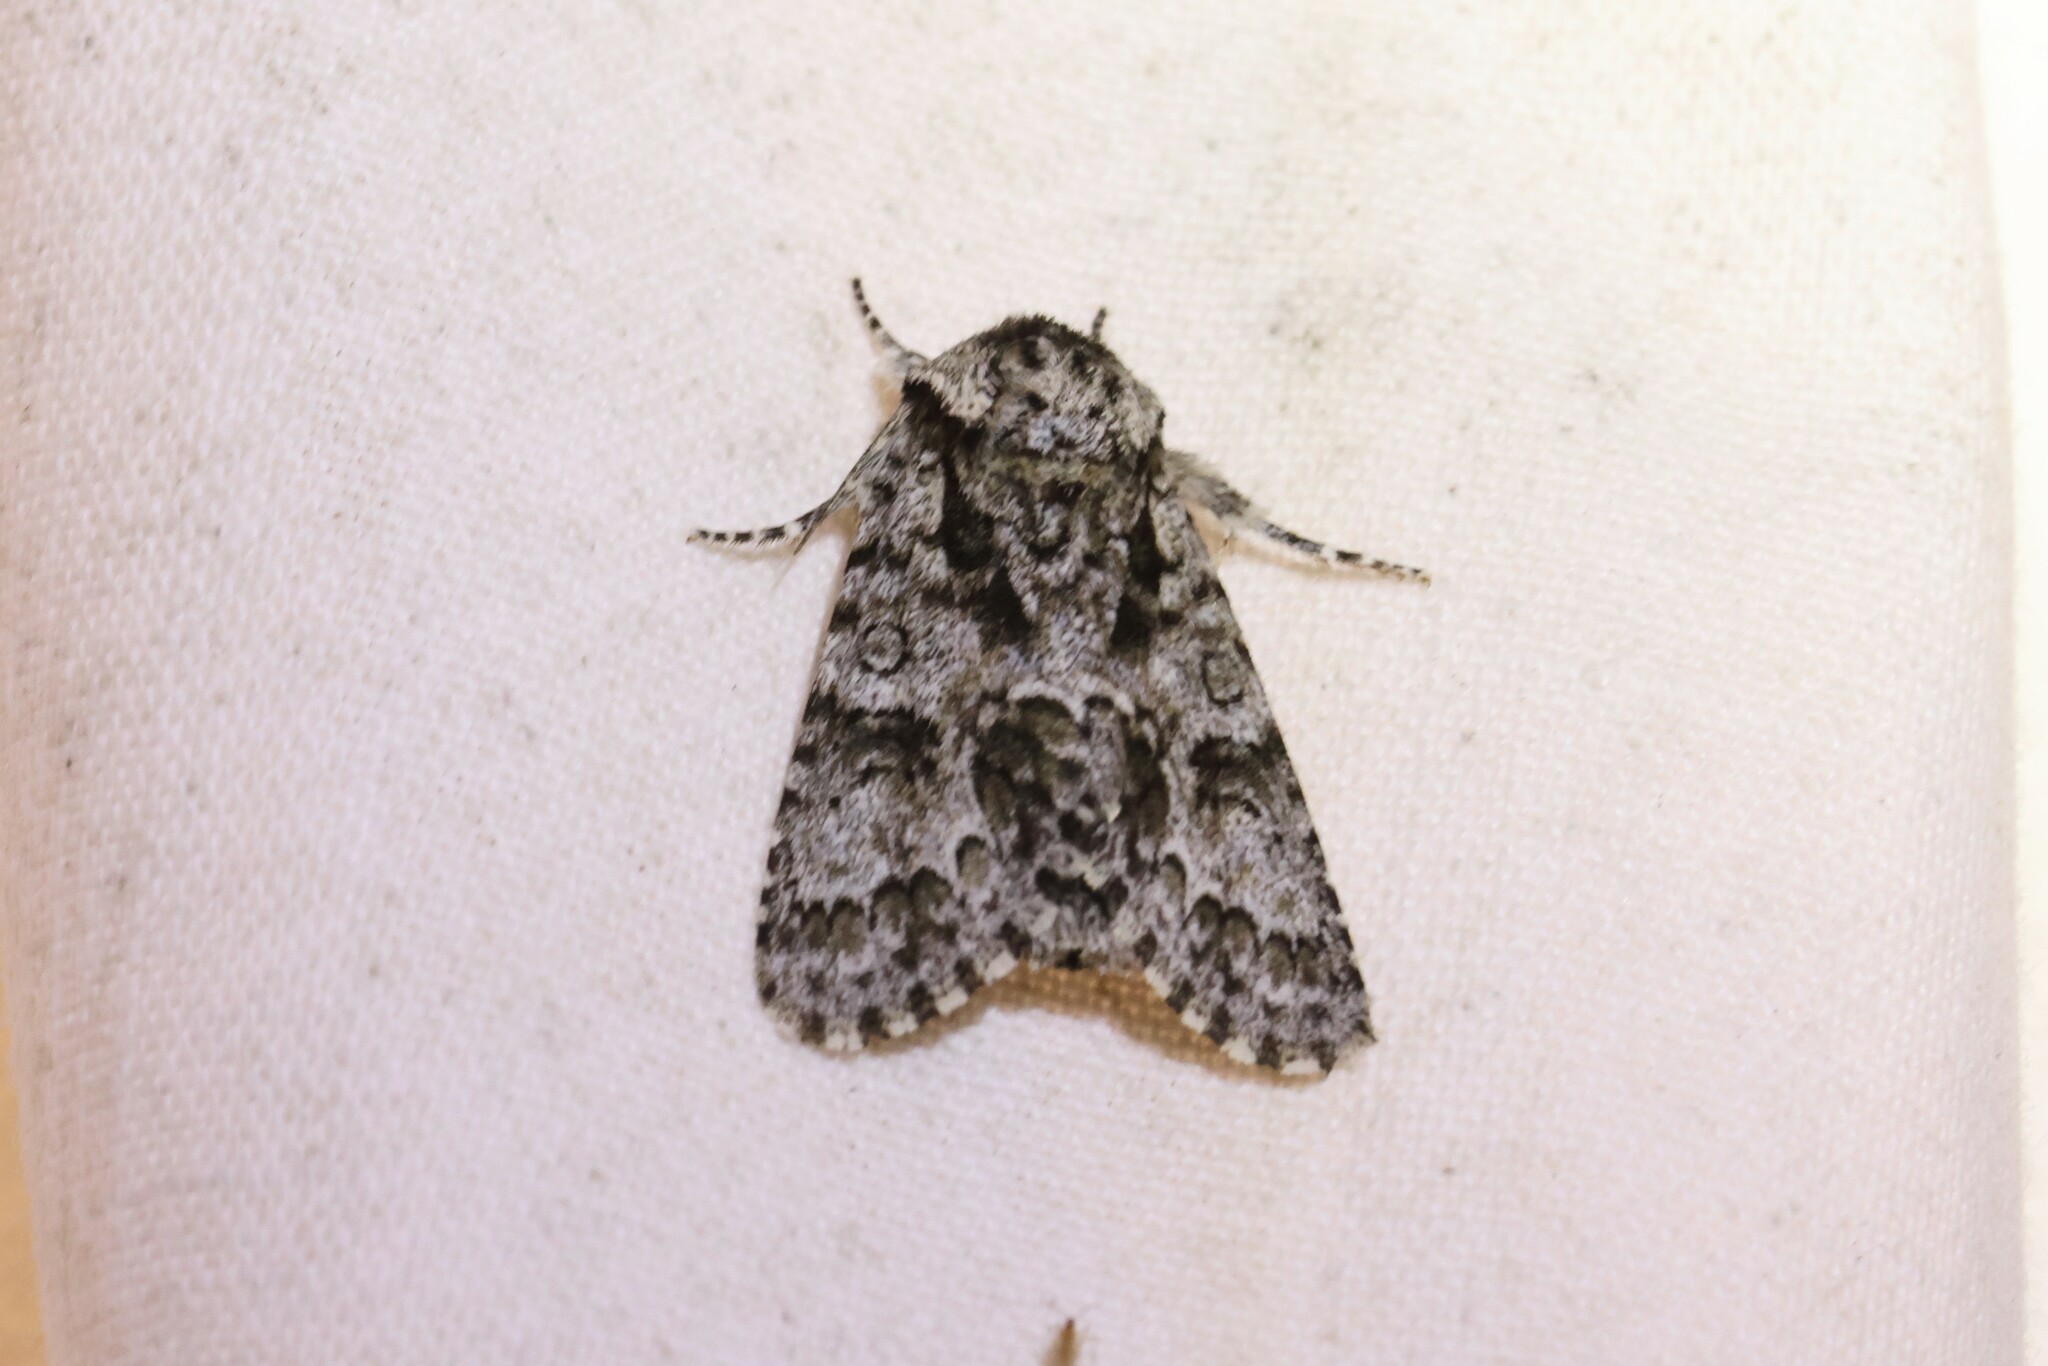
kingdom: Animalia
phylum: Arthropoda
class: Insecta
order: Lepidoptera
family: Noctuidae
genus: Acronicta
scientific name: Acronicta impressa
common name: Impressed dagger
